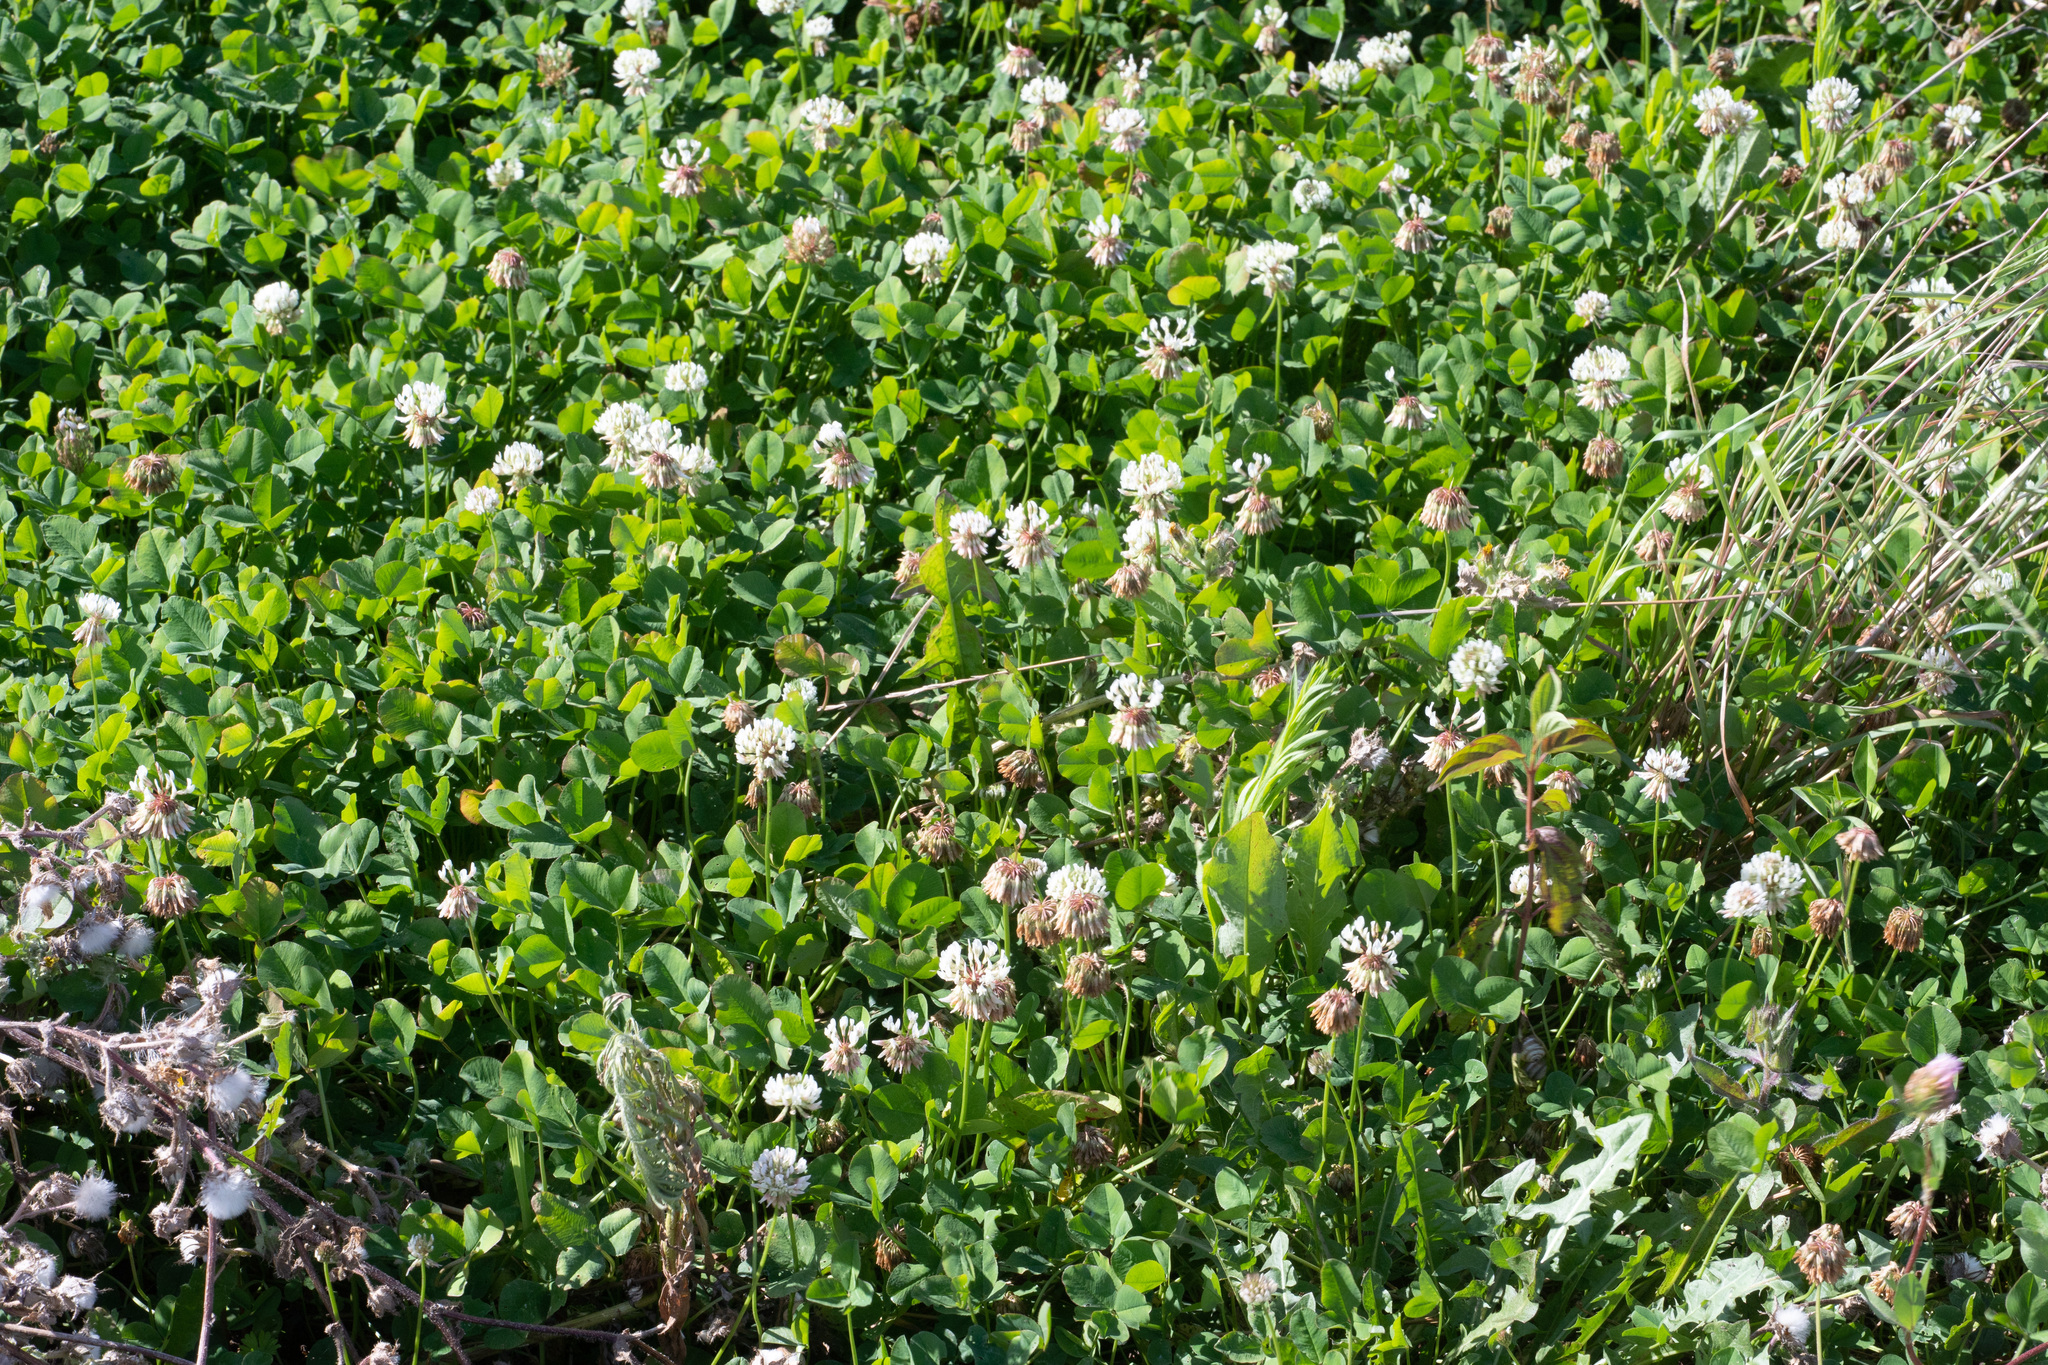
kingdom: Plantae
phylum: Tracheophyta
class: Magnoliopsida
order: Fabales
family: Fabaceae
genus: Trifolium
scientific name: Trifolium repens
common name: White clover
